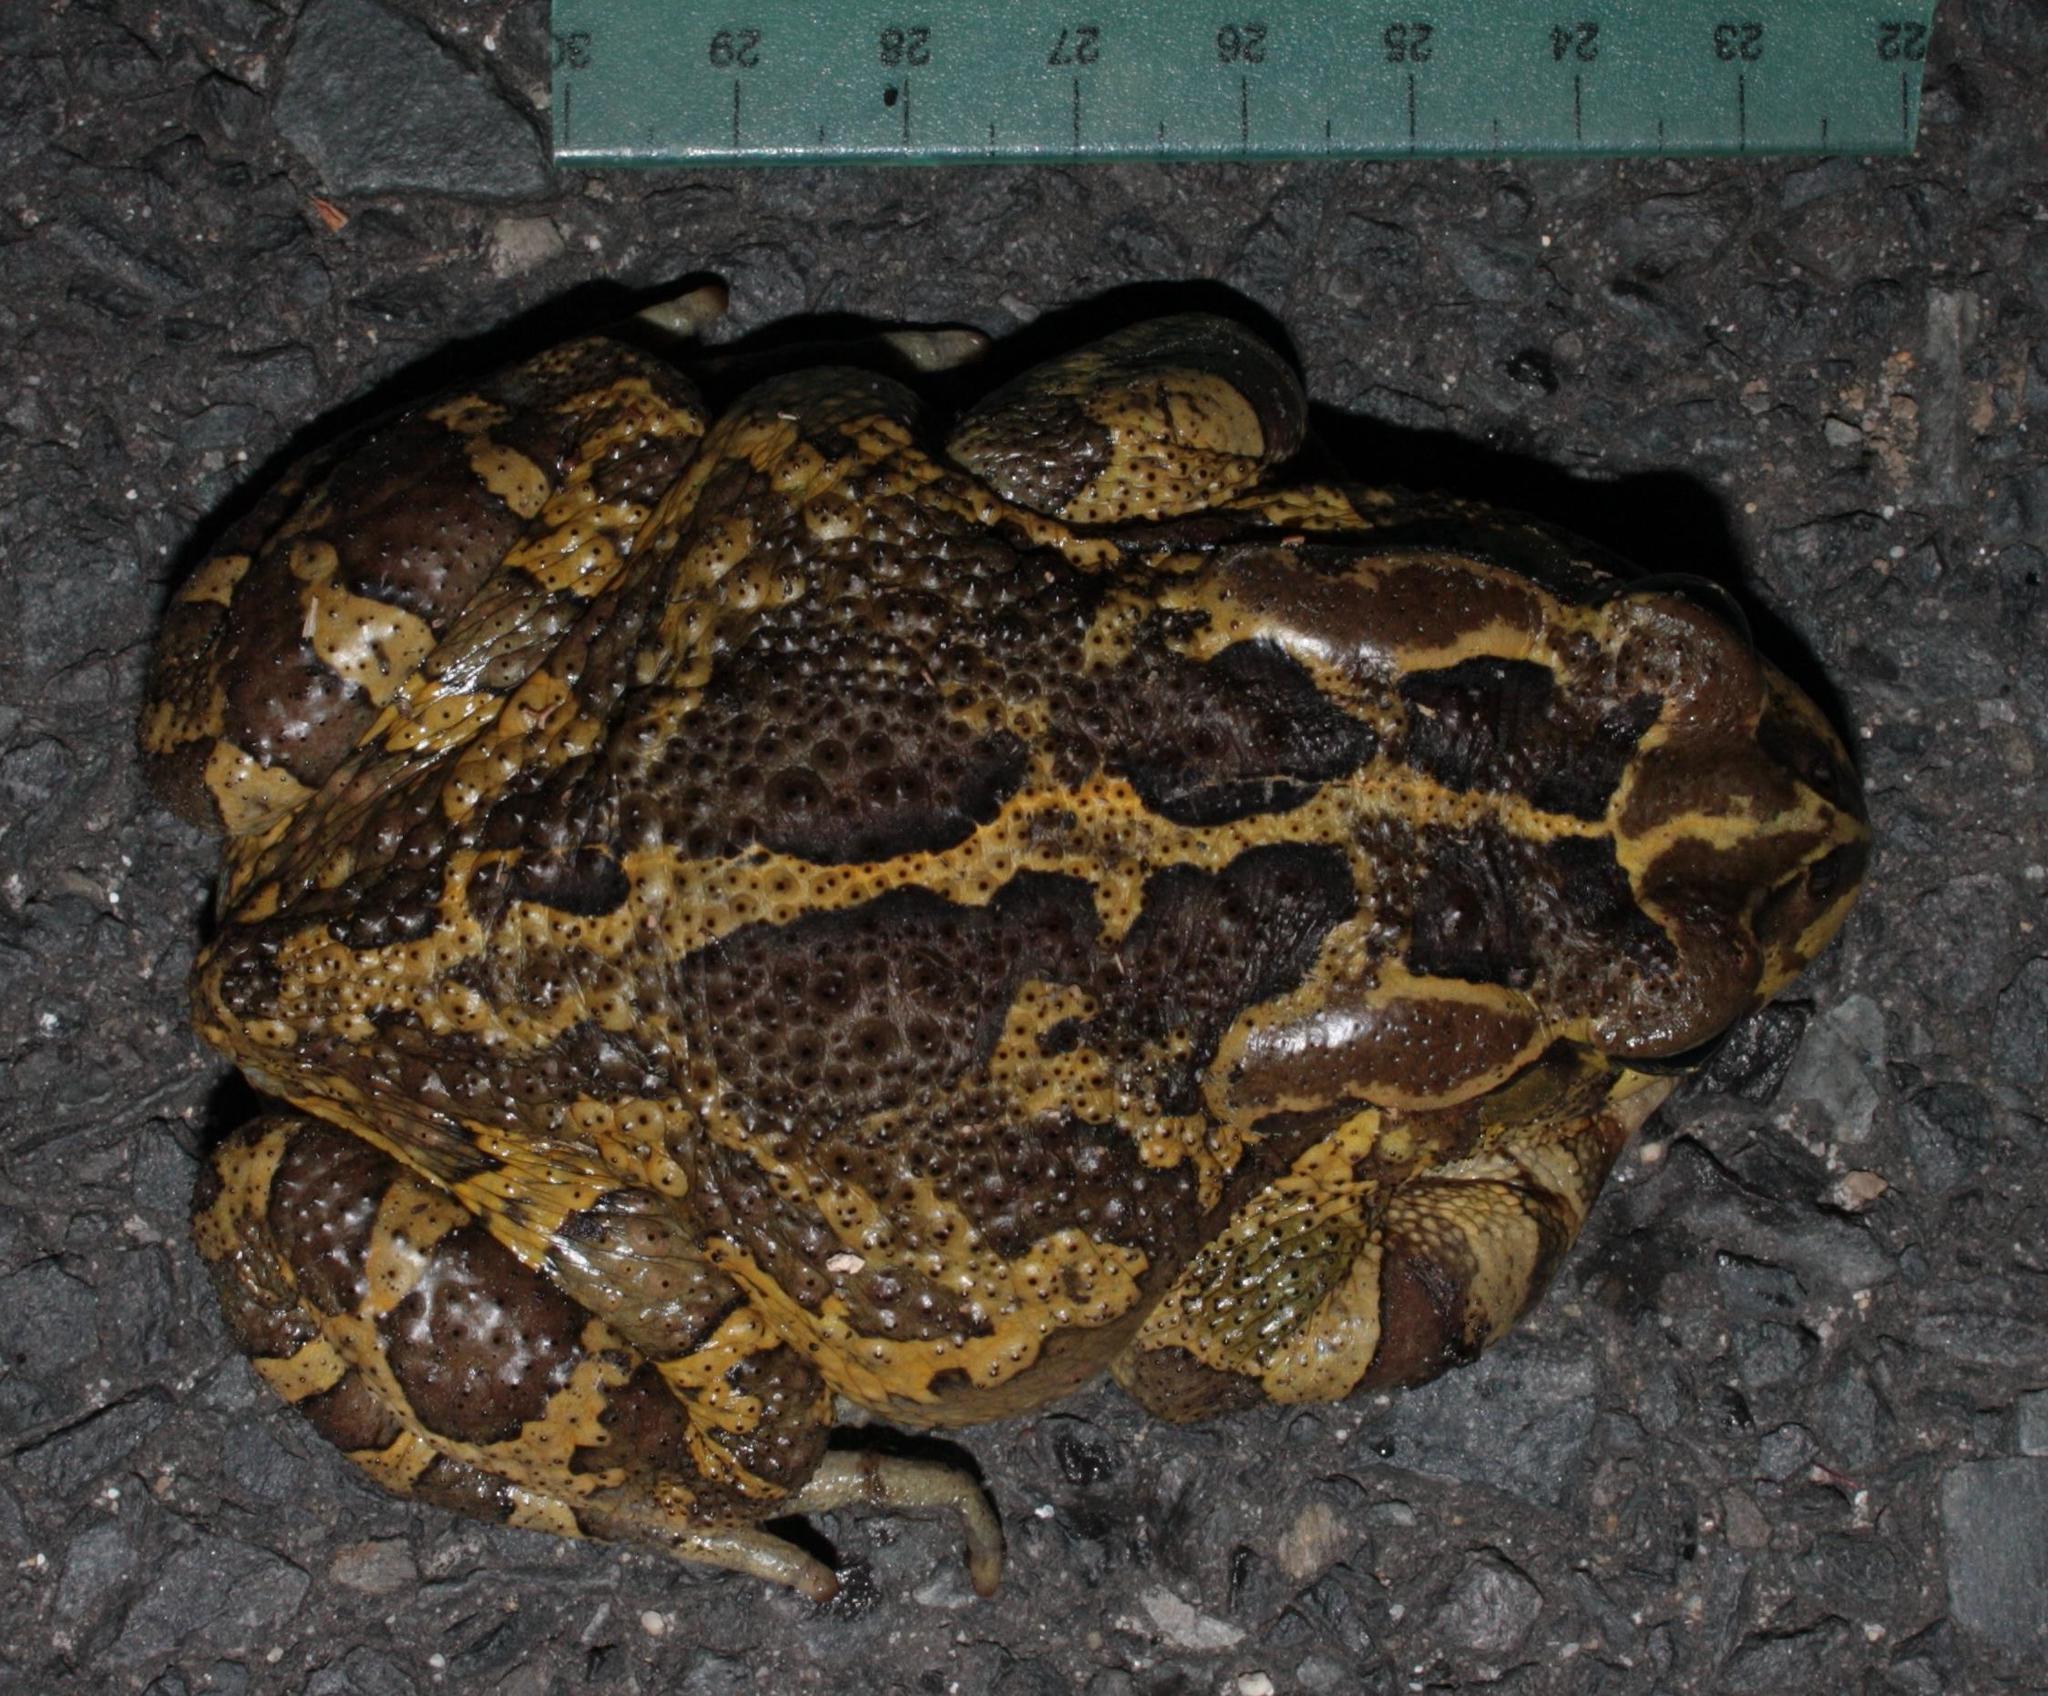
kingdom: Animalia
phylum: Chordata
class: Amphibia
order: Anura
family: Bufonidae
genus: Sclerophrys
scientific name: Sclerophrys pantherina
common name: Panther toad
